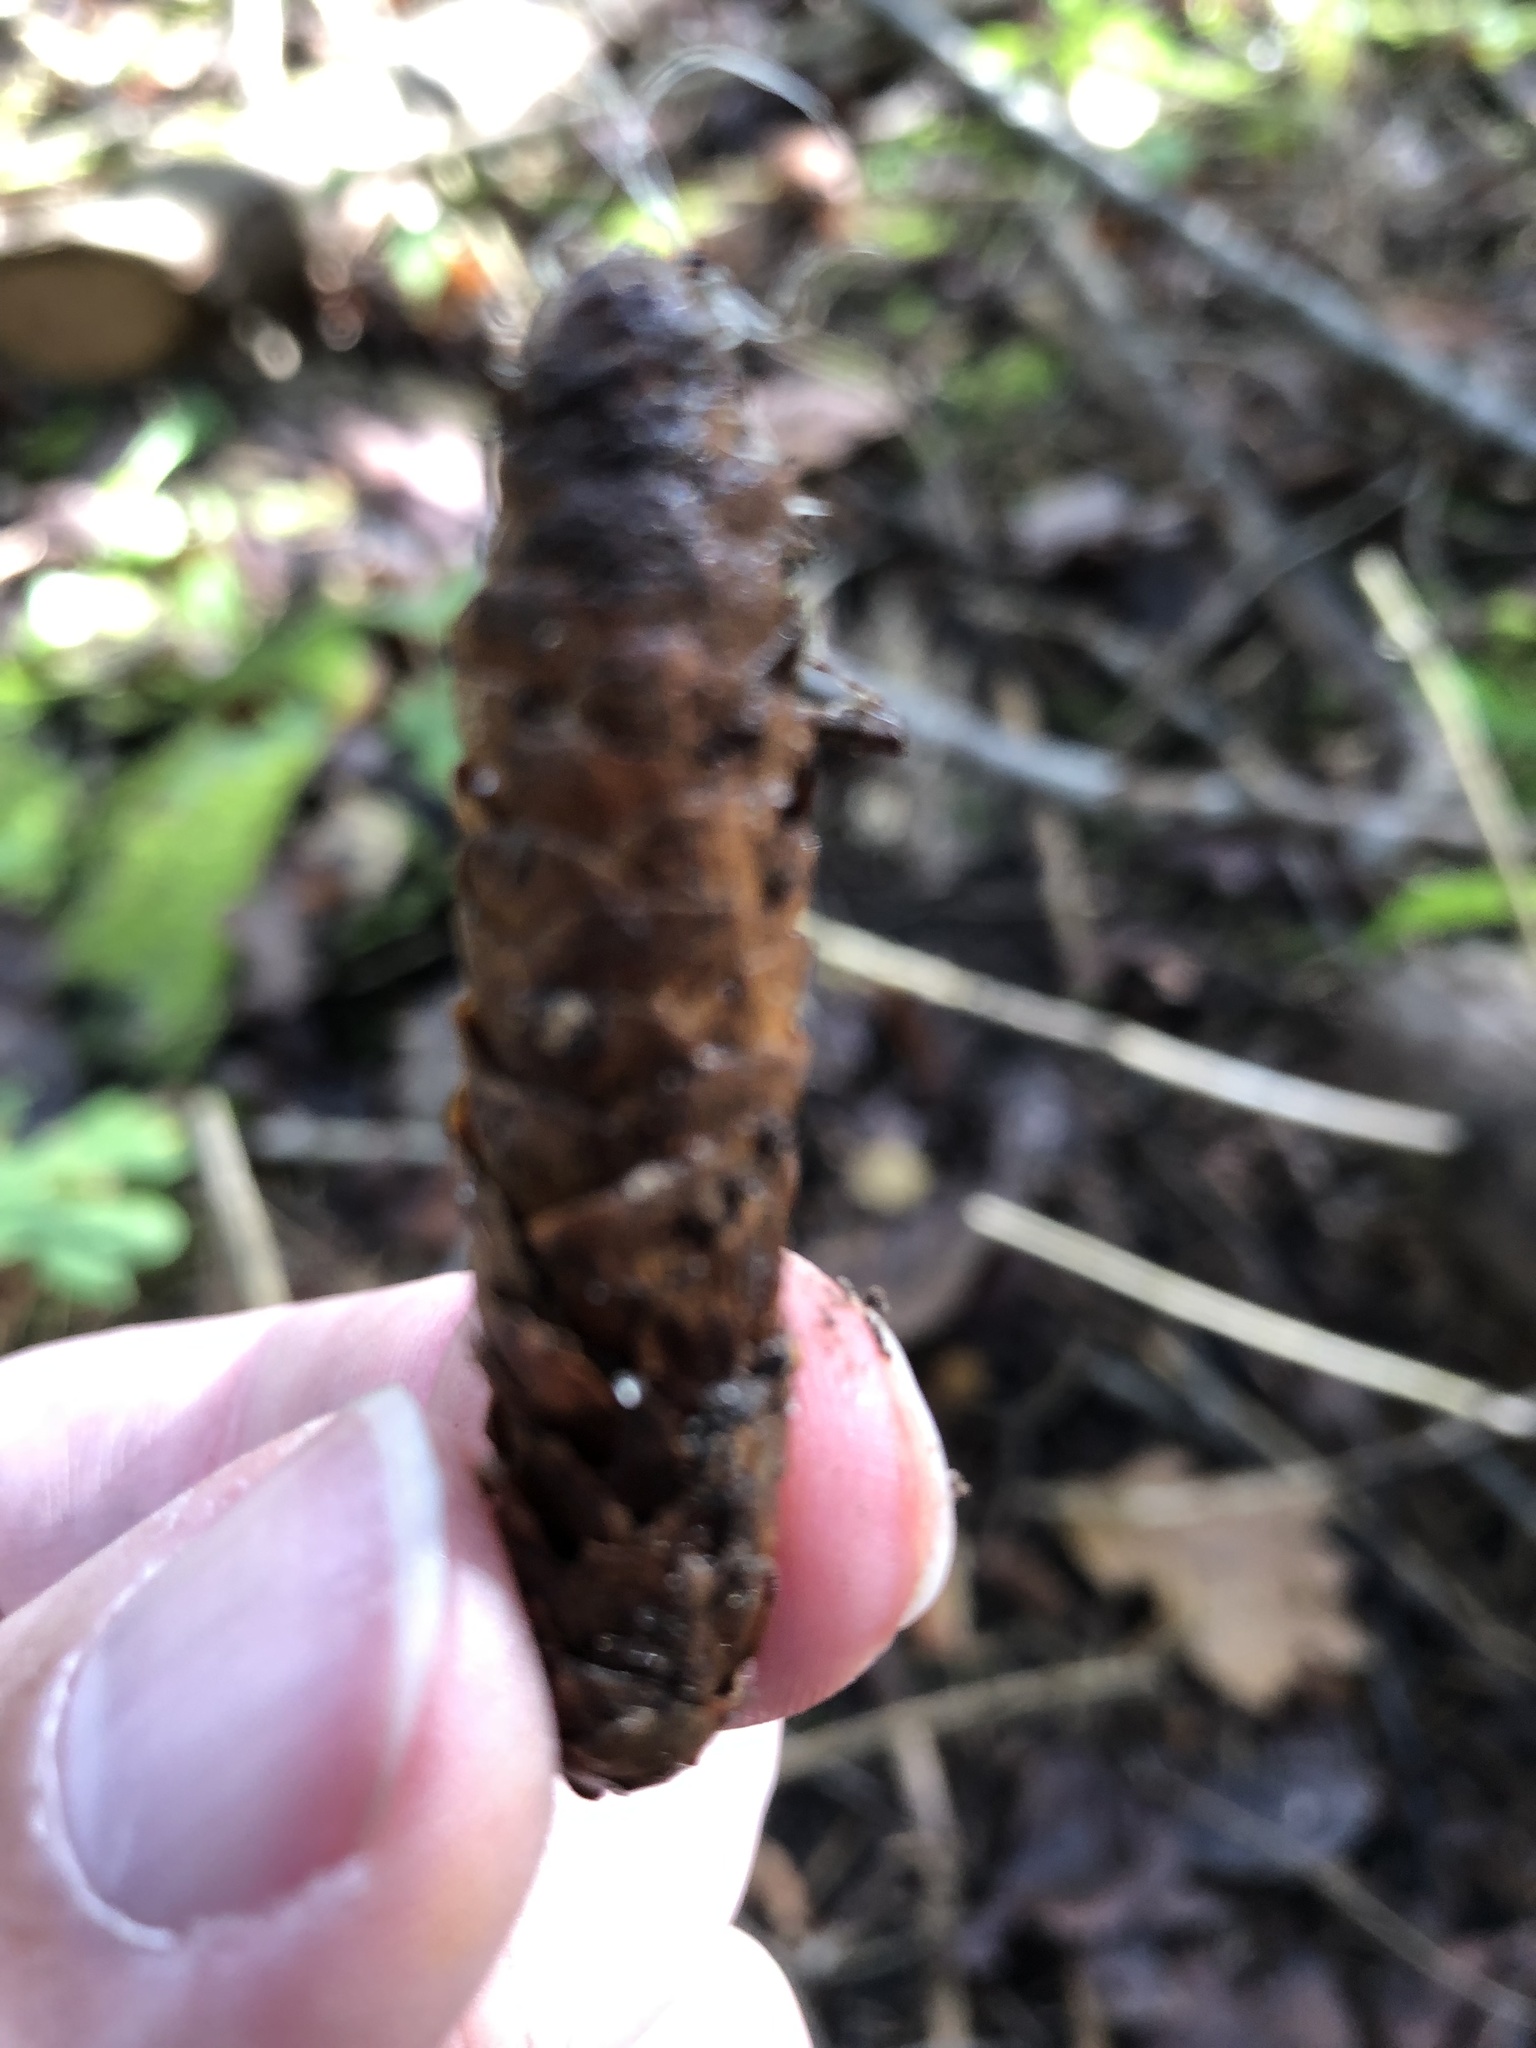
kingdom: Plantae
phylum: Tracheophyta
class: Pinopsida
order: Pinales
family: Pinaceae
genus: Picea
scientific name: Picea glauca
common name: White spruce
